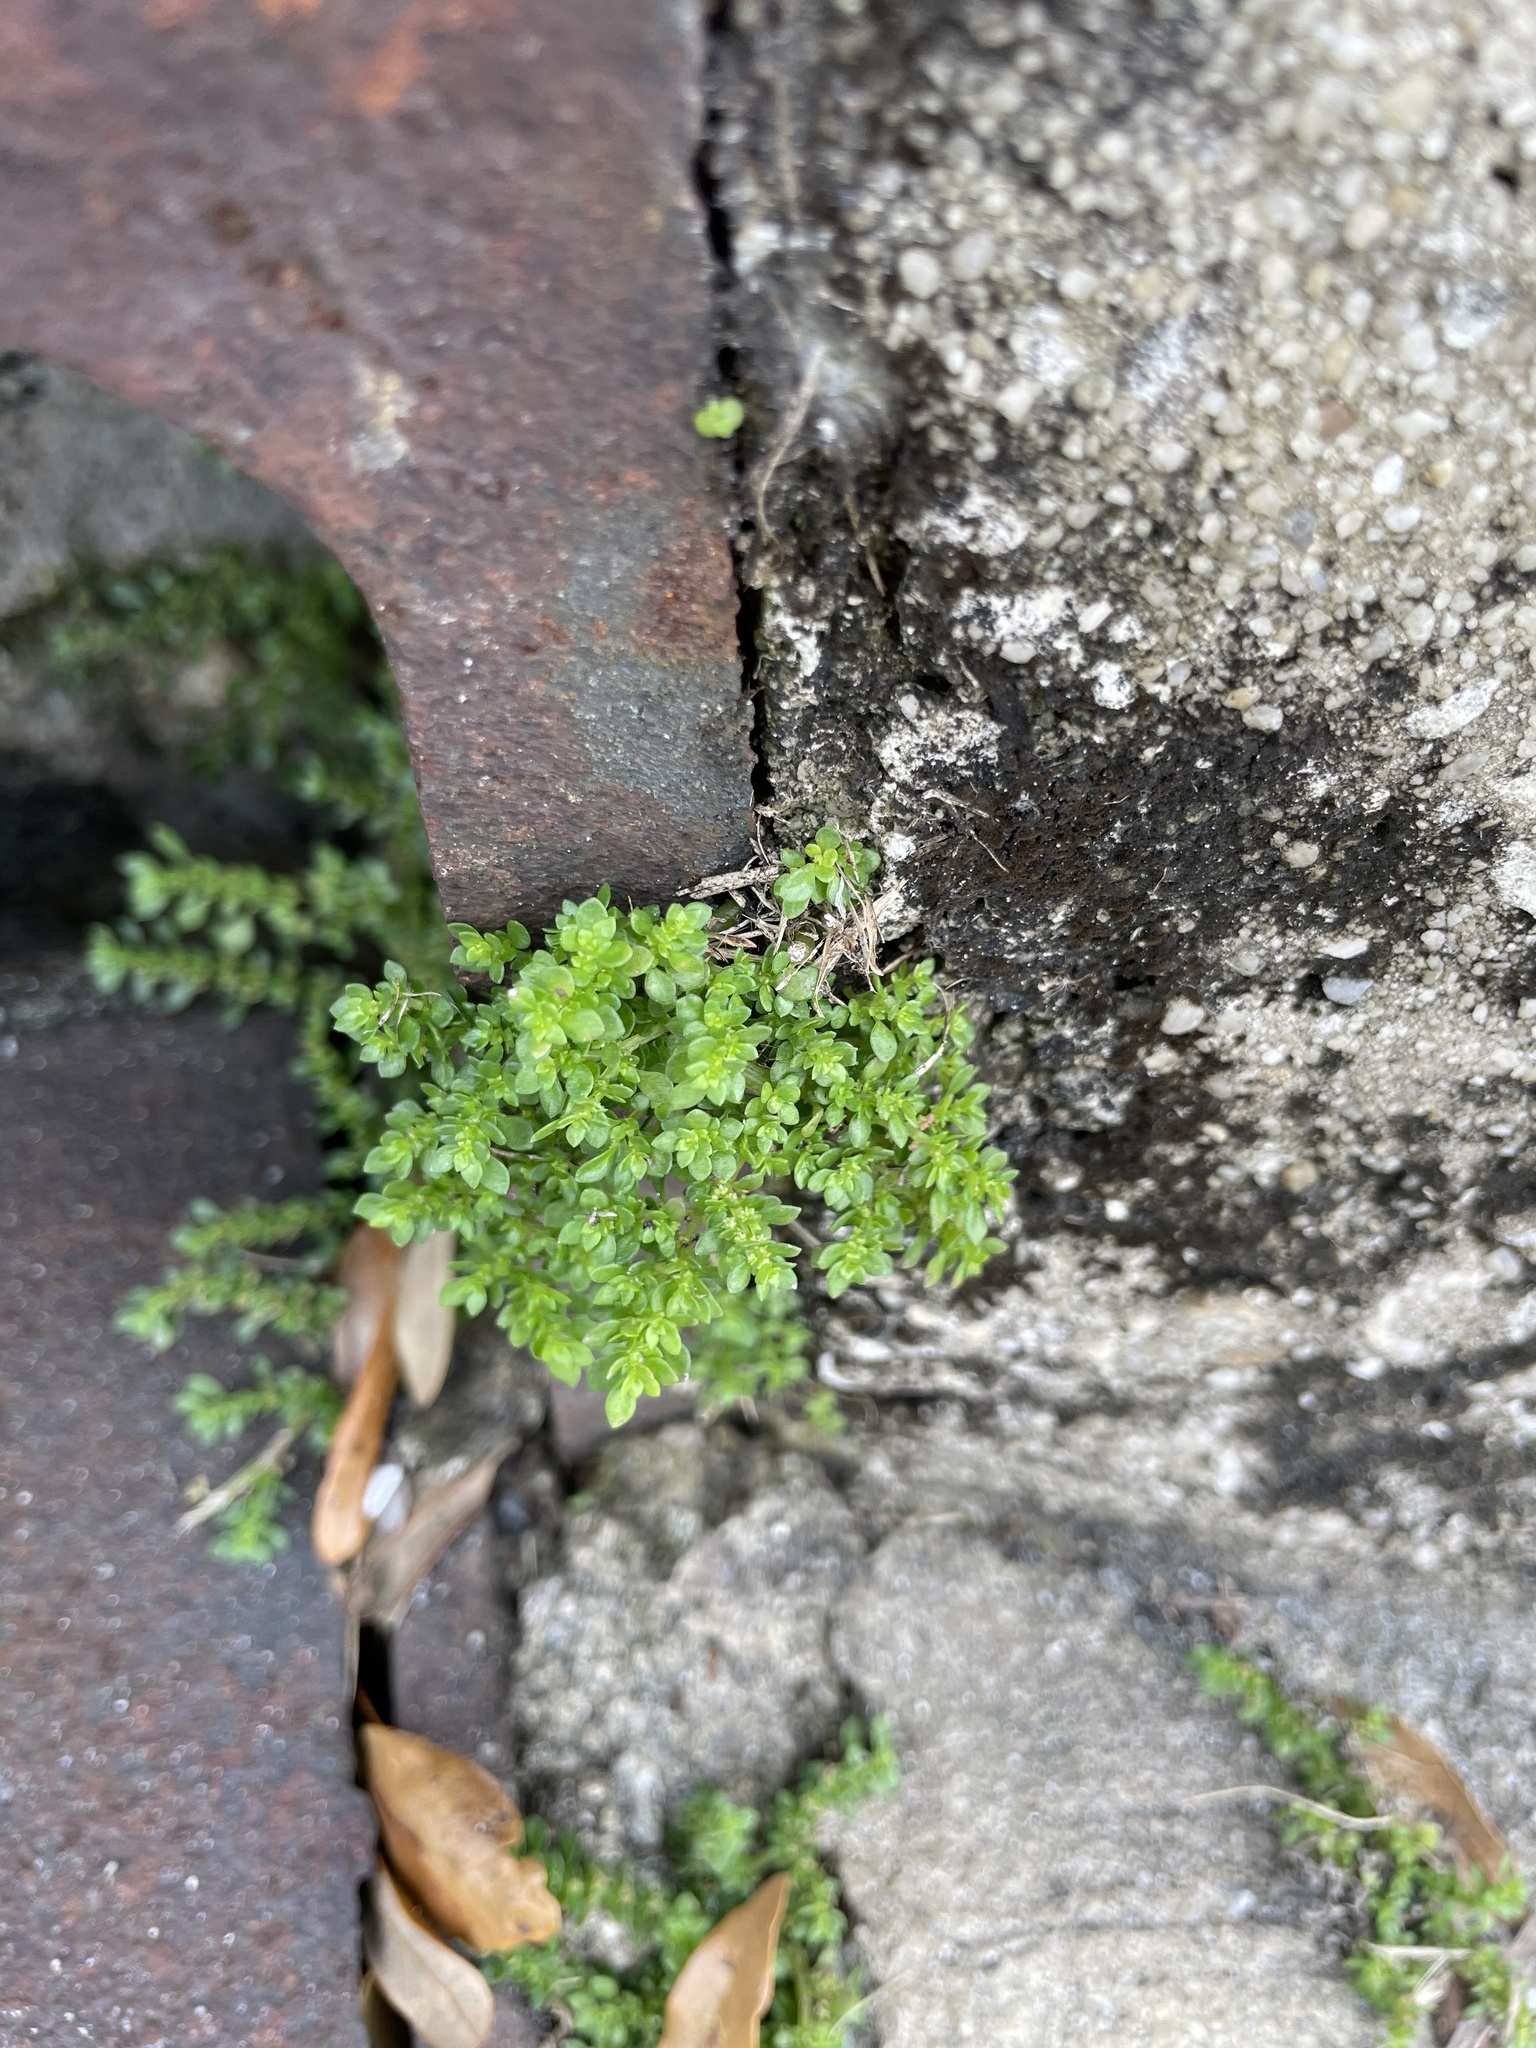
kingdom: Plantae
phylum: Tracheophyta
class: Magnoliopsida
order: Rosales
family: Urticaceae
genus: Pilea
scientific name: Pilea microphylla
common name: Artillery-plant
